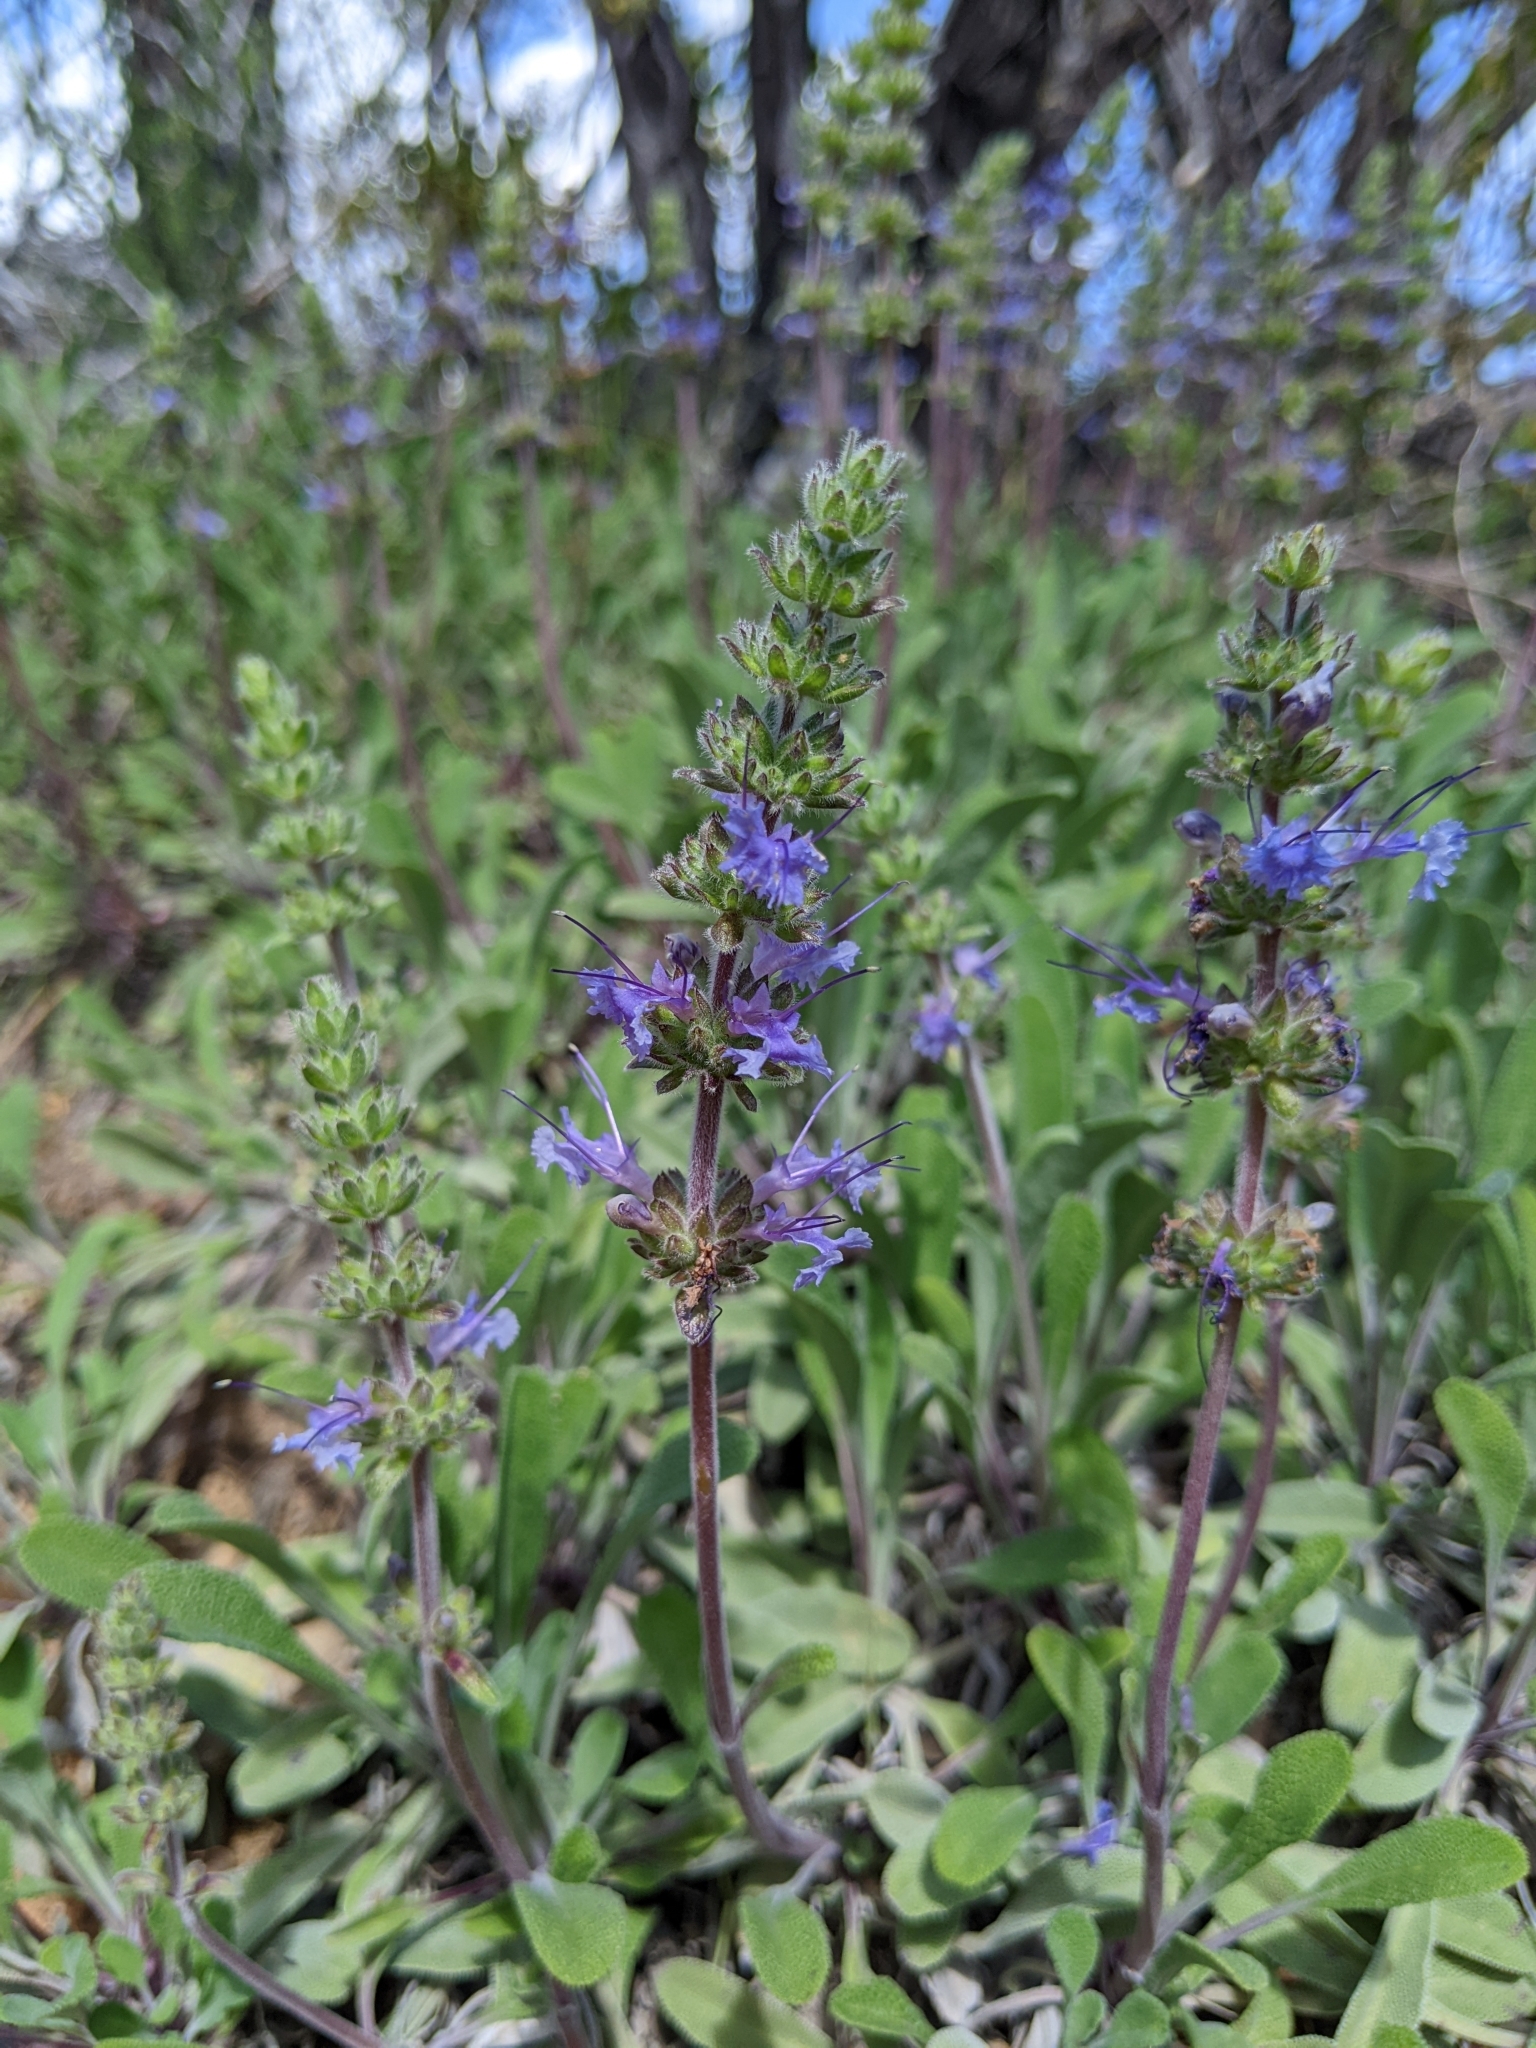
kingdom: Plantae
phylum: Tracheophyta
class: Magnoliopsida
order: Lamiales
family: Lamiaceae
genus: Salvia
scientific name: Salvia sonomensis
